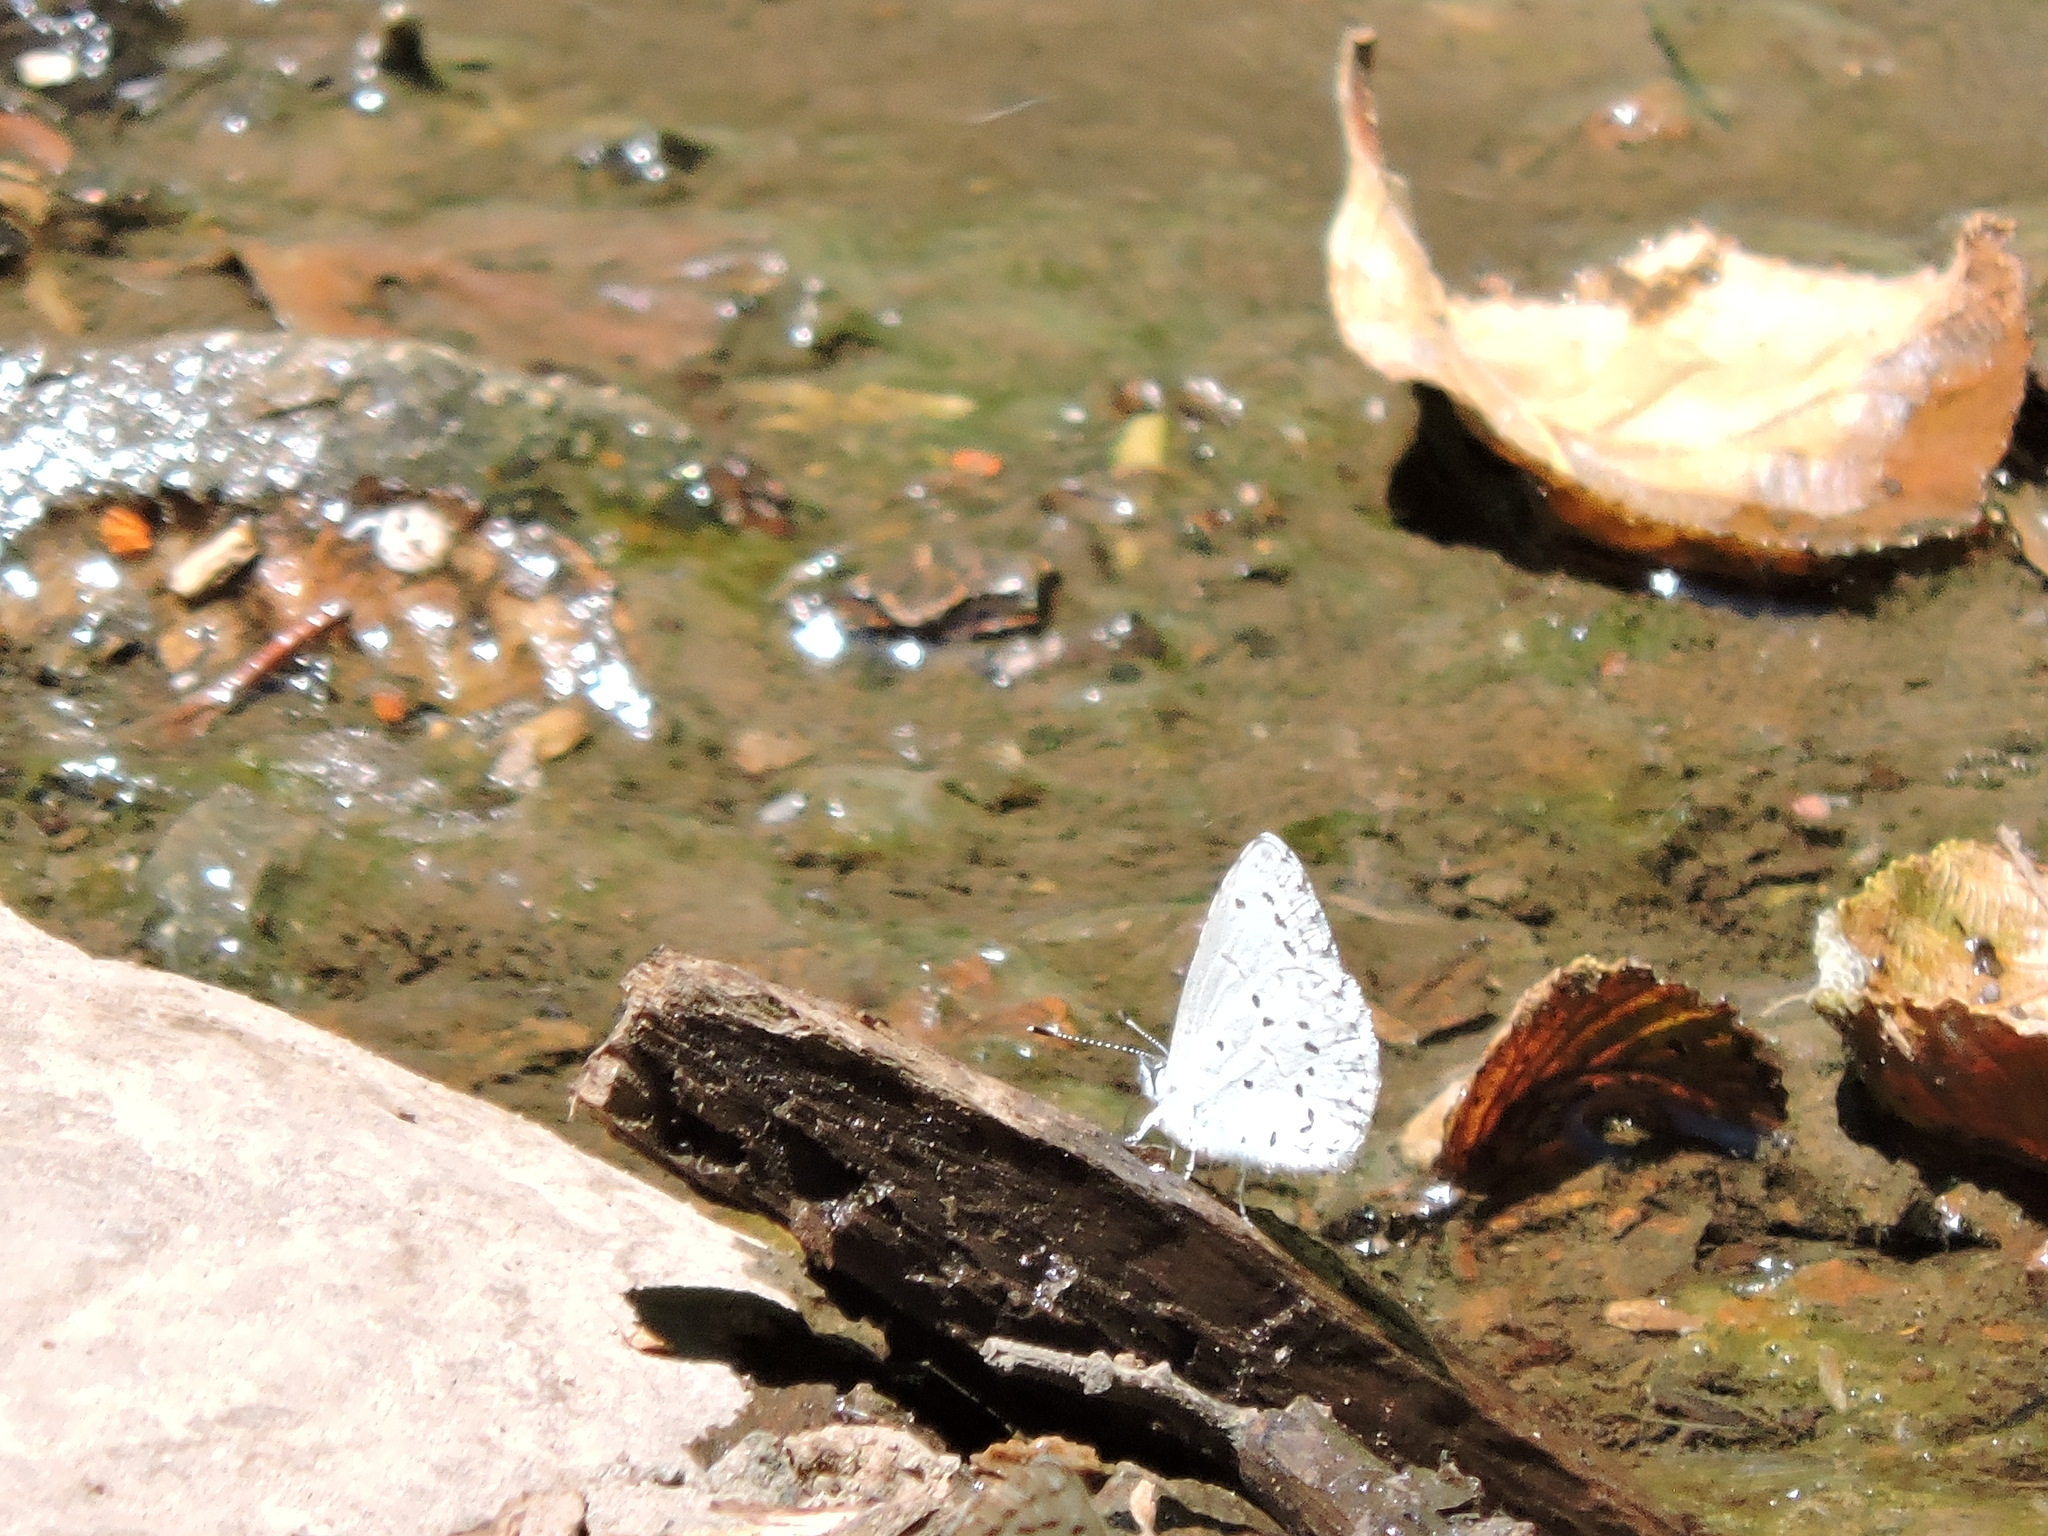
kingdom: Animalia
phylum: Arthropoda
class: Insecta
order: Lepidoptera
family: Lycaenidae
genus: Celastrina
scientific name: Celastrina ladon
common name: Spring azure
